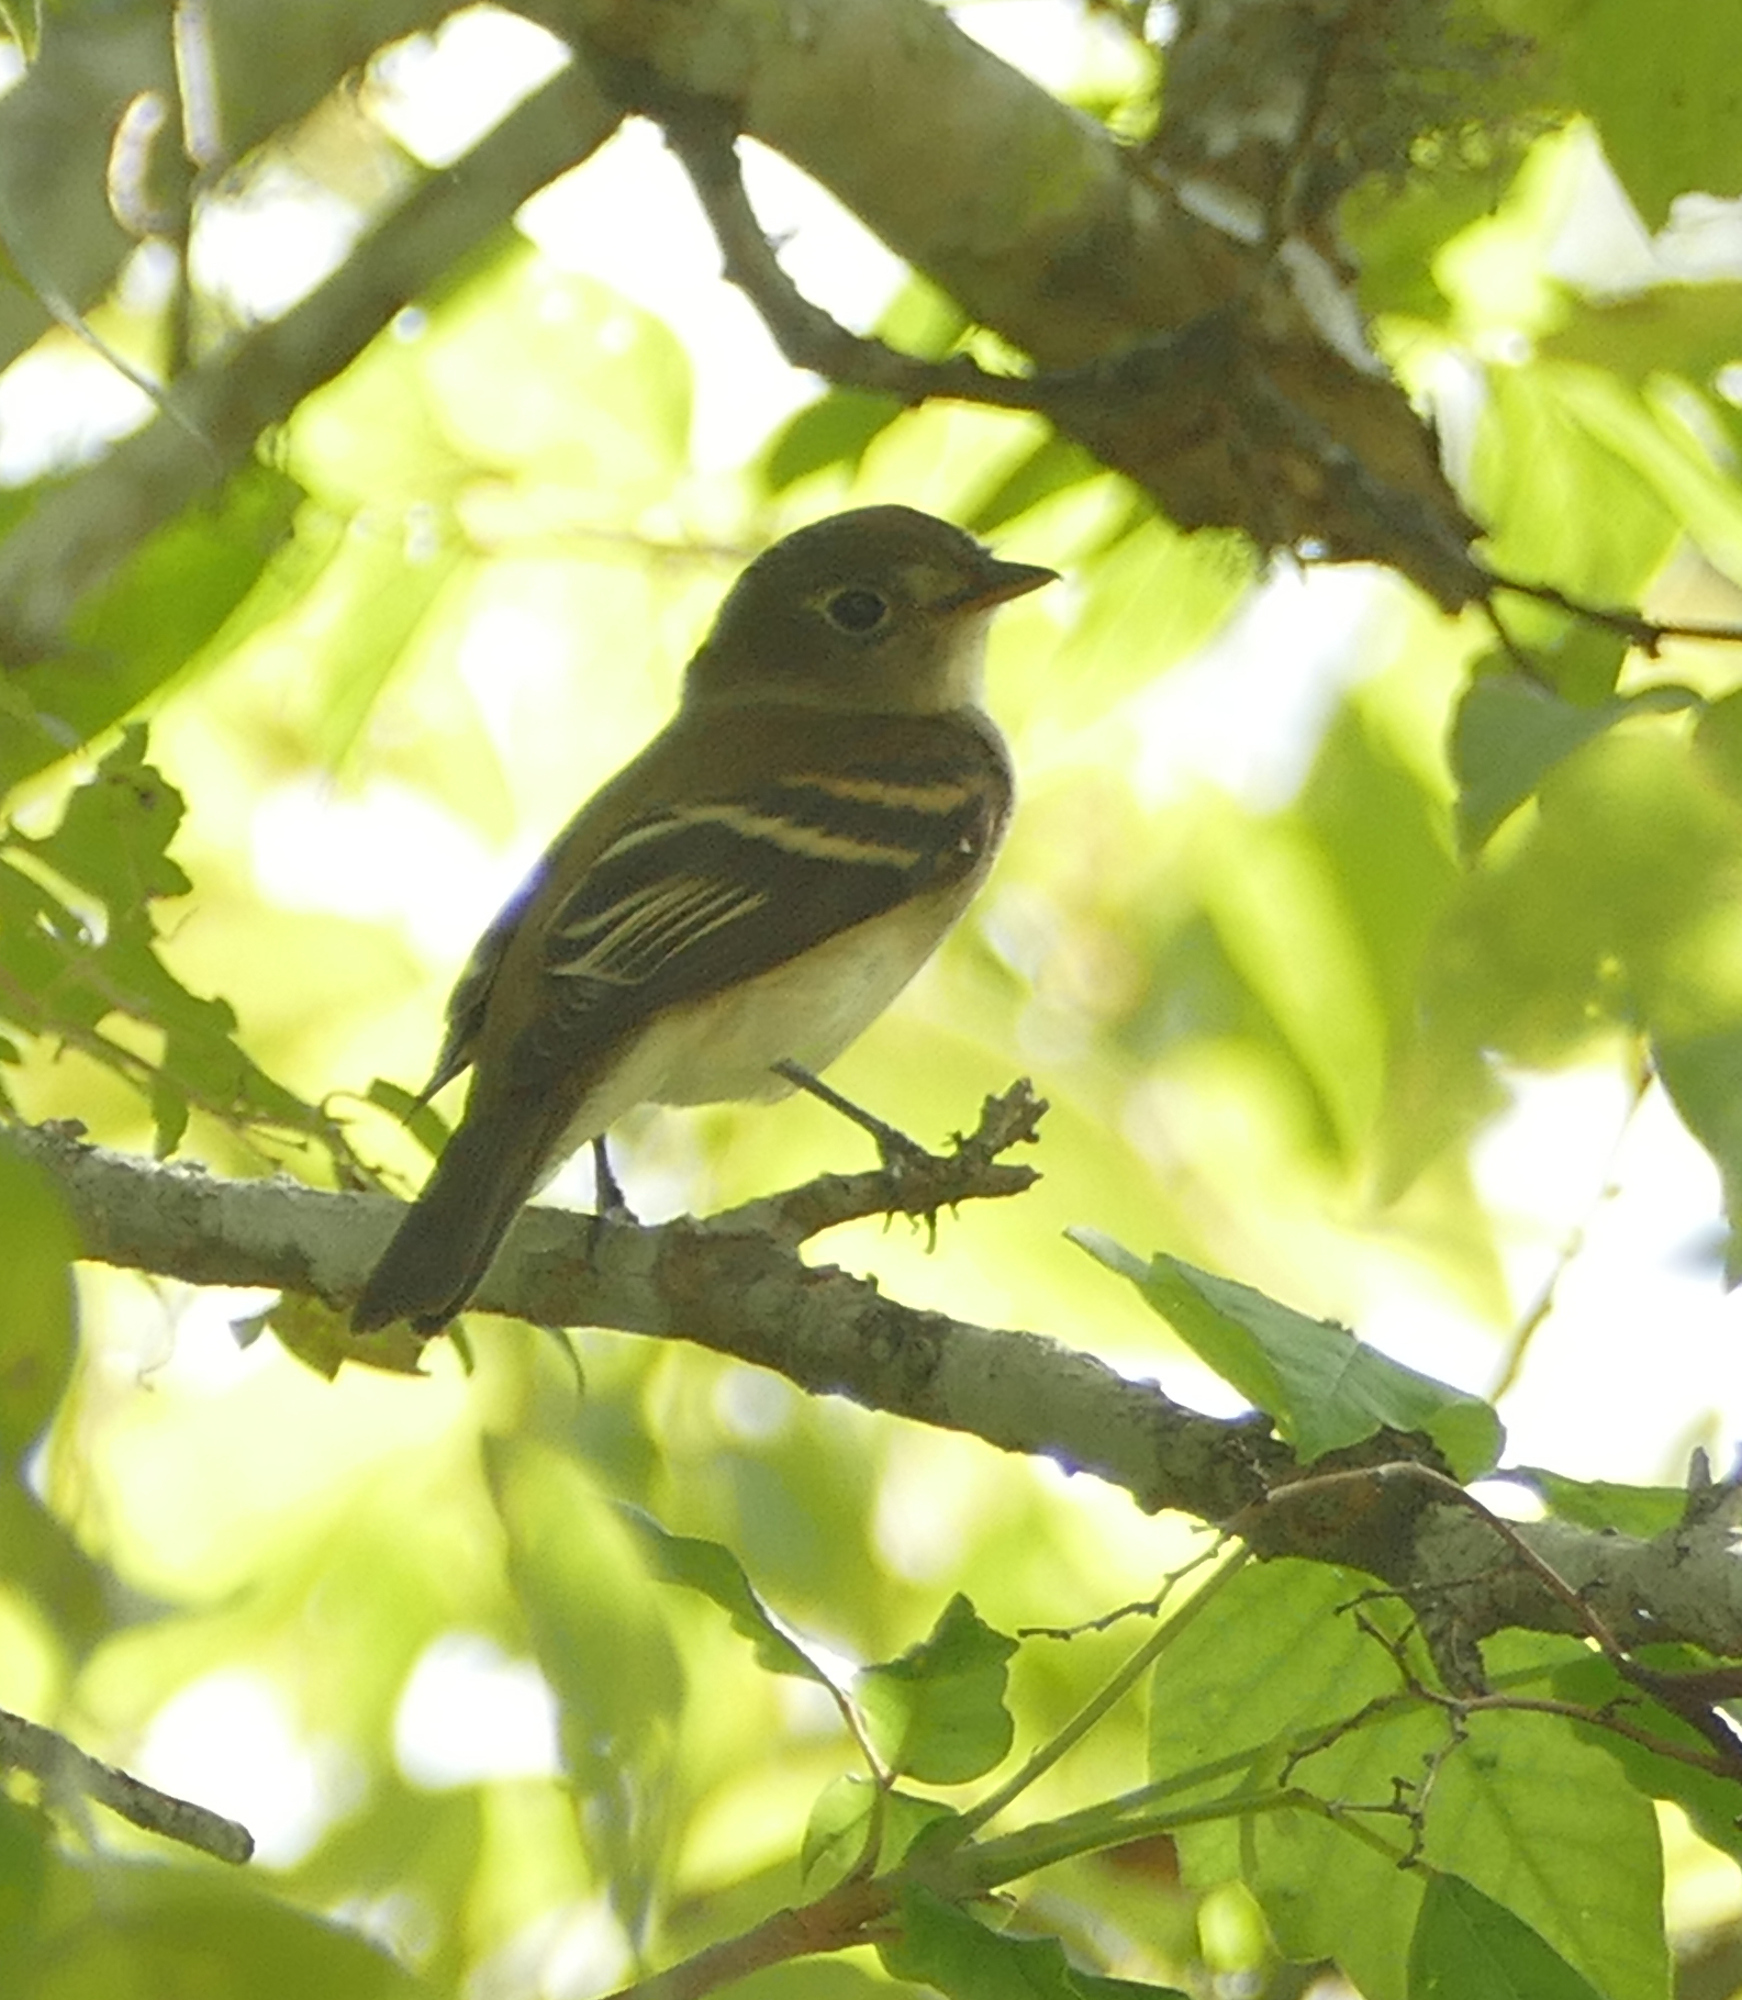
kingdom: Animalia
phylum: Chordata
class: Aves
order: Passeriformes
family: Tyrannidae
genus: Empidonax
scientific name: Empidonax minimus
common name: Least flycatcher
